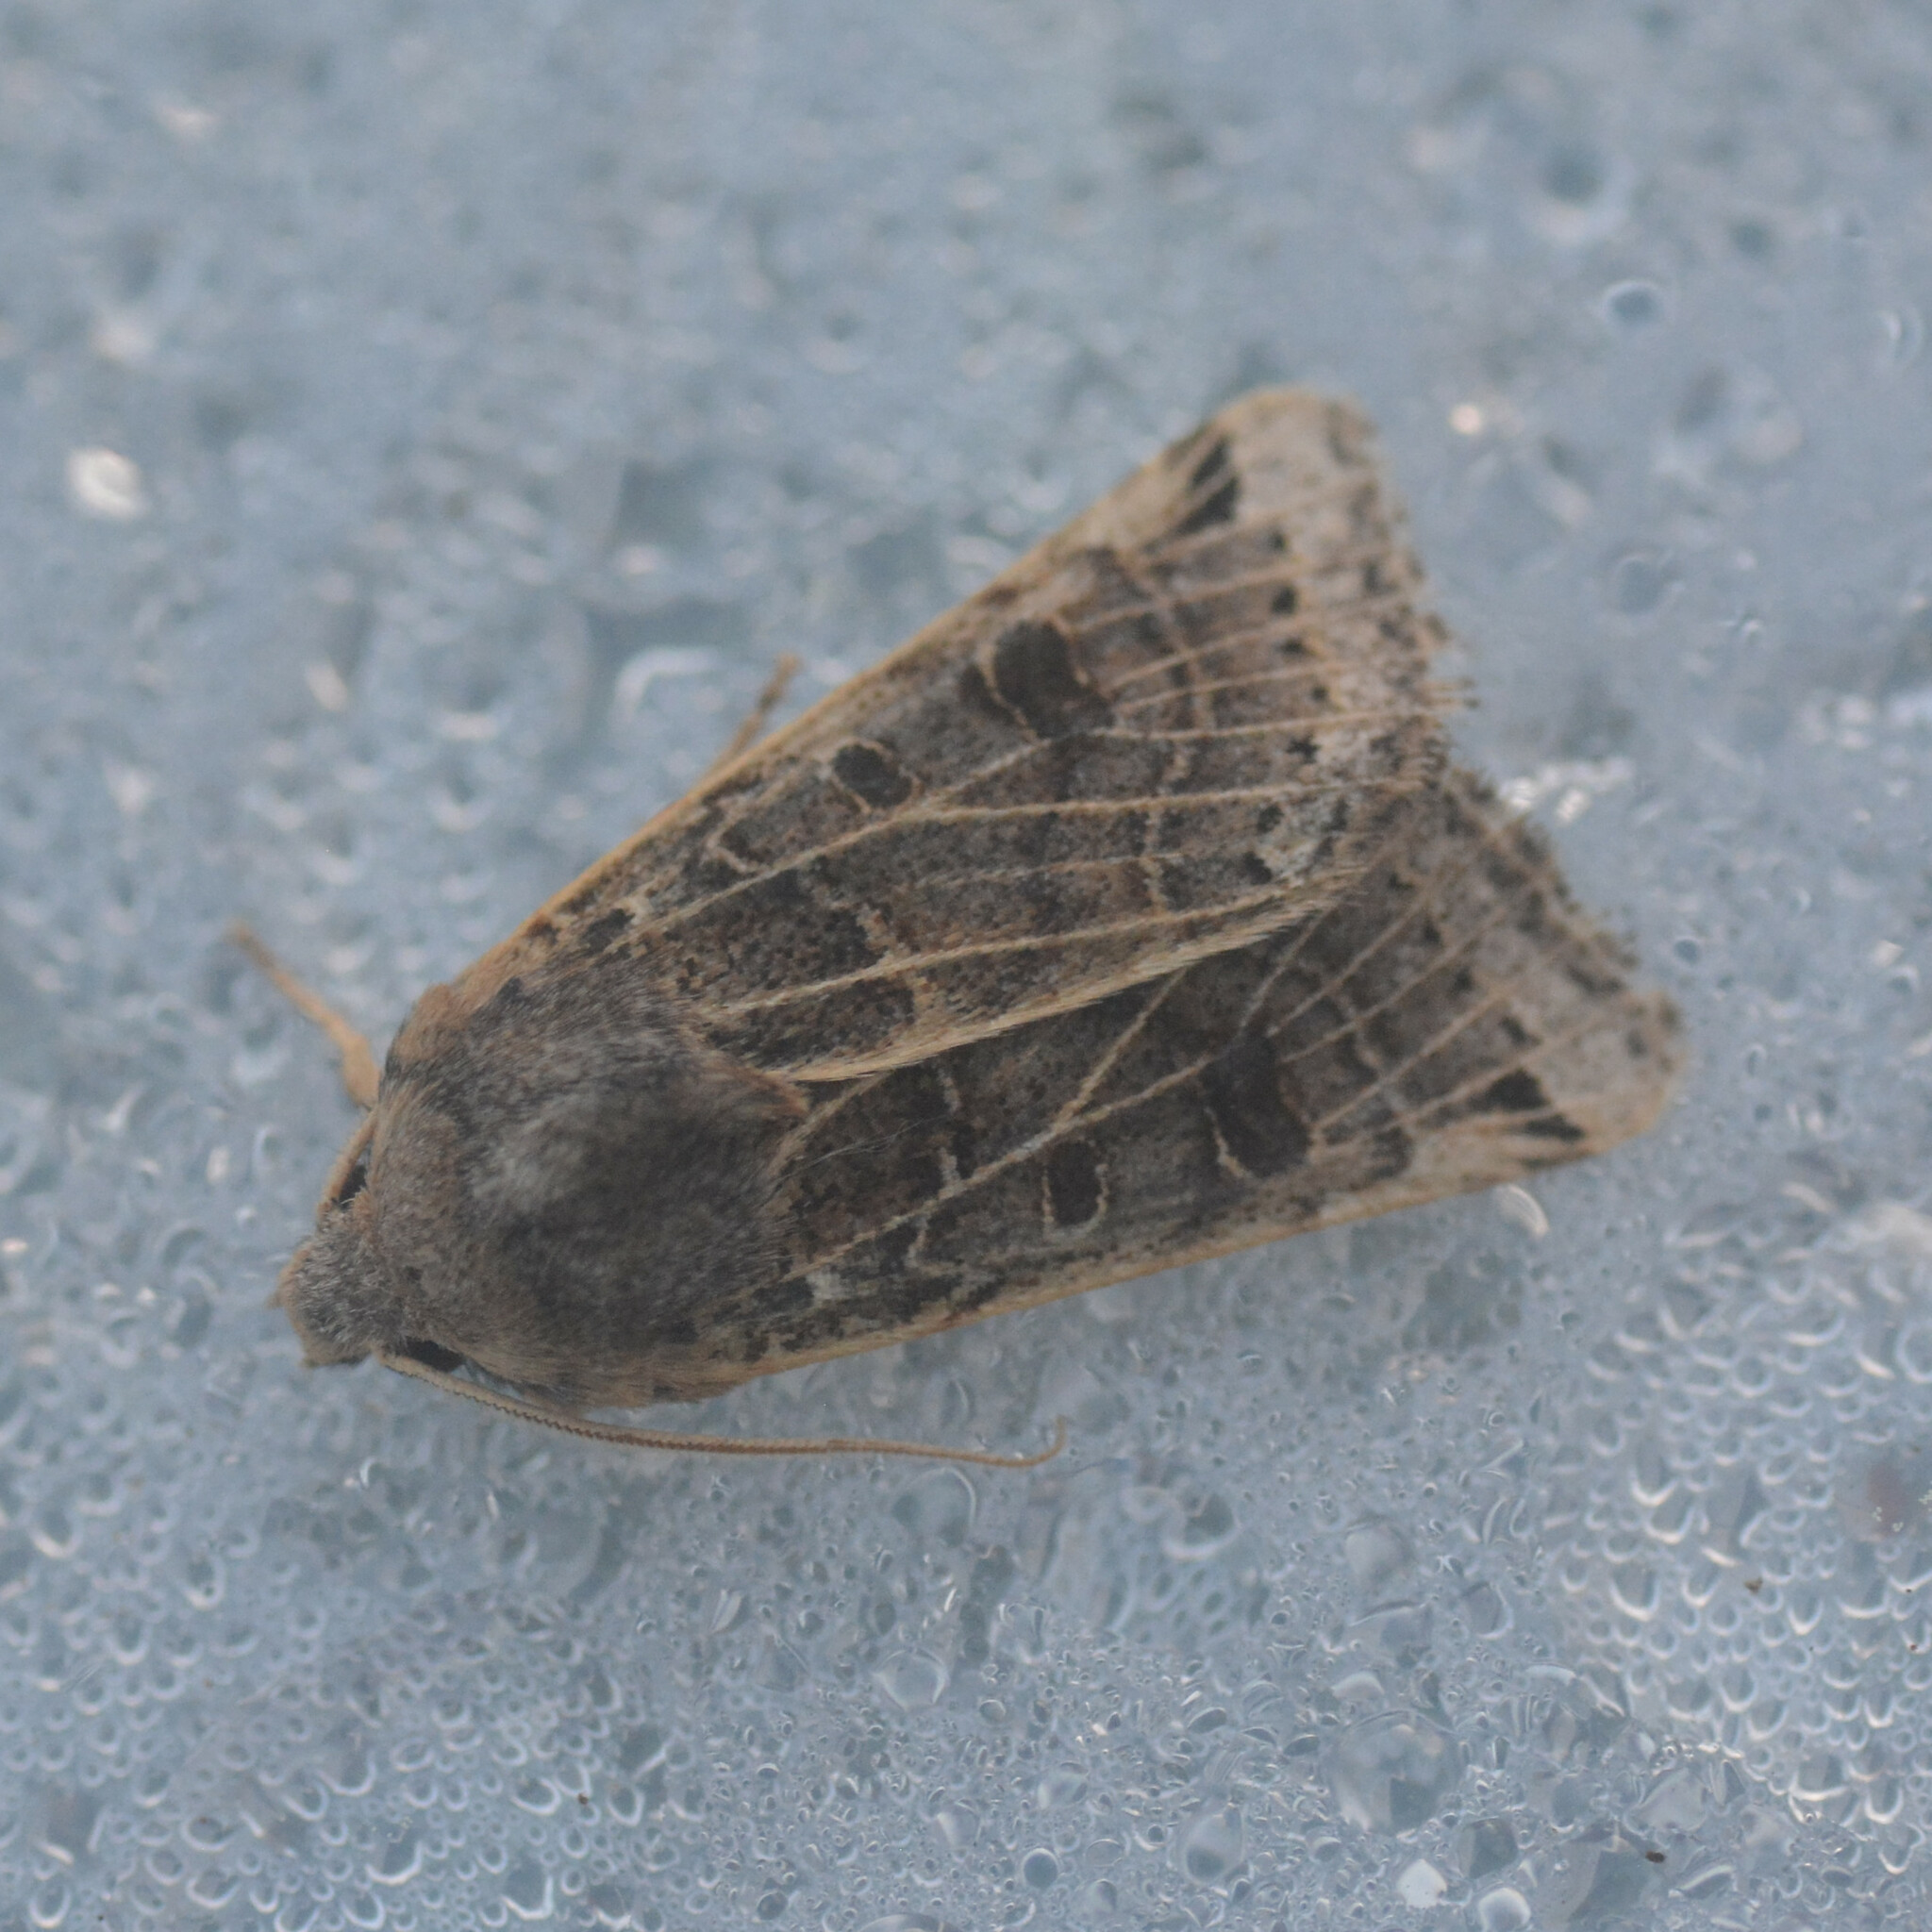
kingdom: Animalia
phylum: Arthropoda
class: Insecta
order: Lepidoptera
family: Noctuidae
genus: Agrochola
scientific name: Agrochola lunosa
